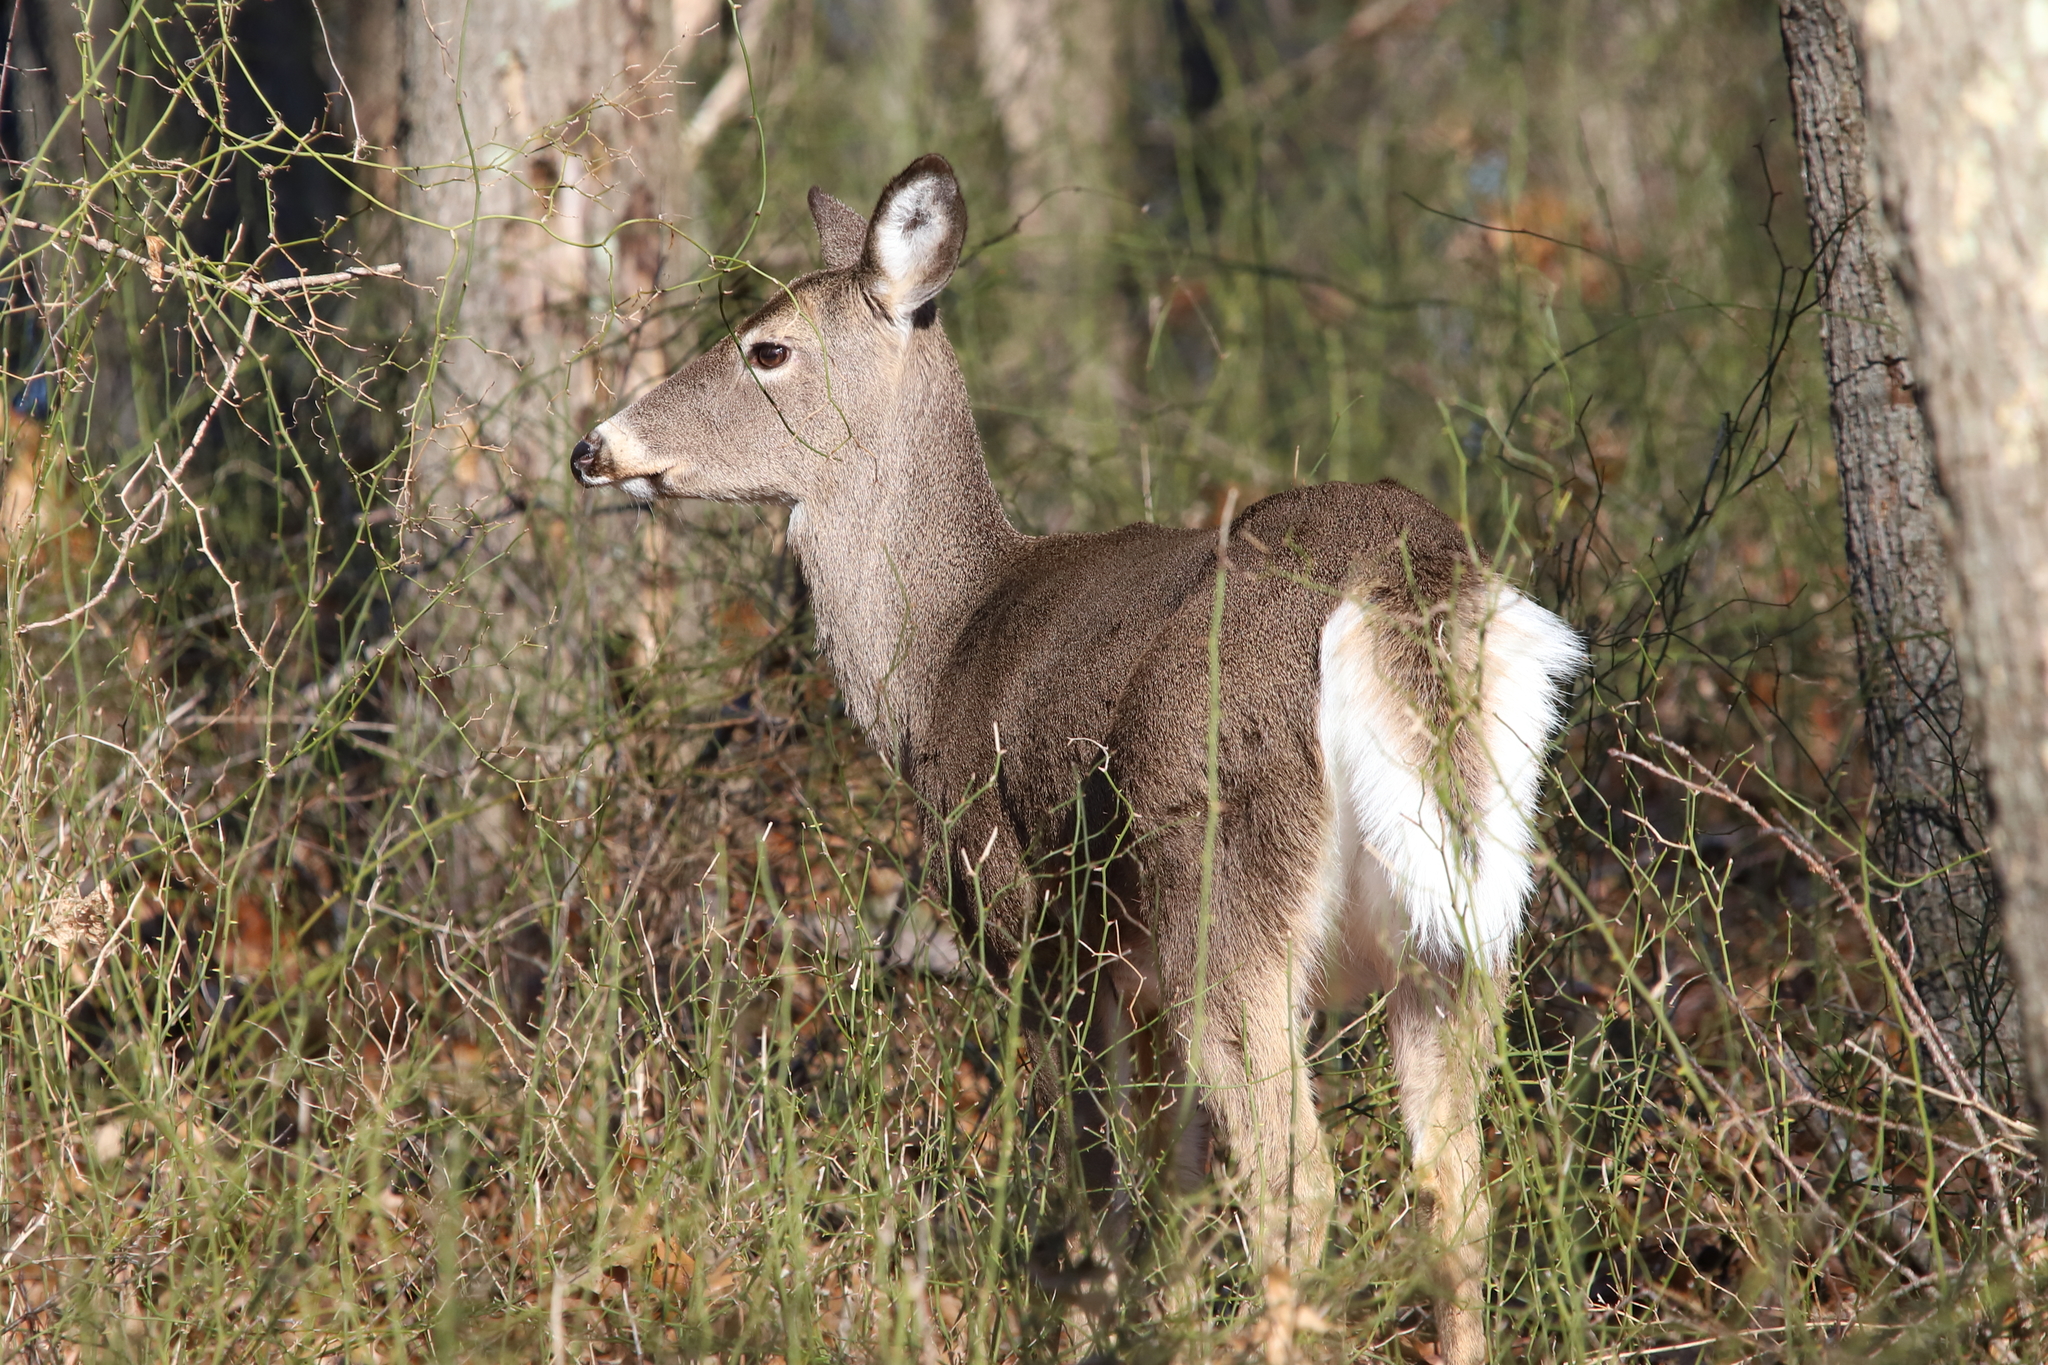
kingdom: Animalia
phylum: Chordata
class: Mammalia
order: Artiodactyla
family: Cervidae
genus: Odocoileus
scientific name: Odocoileus virginianus
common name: White-tailed deer
